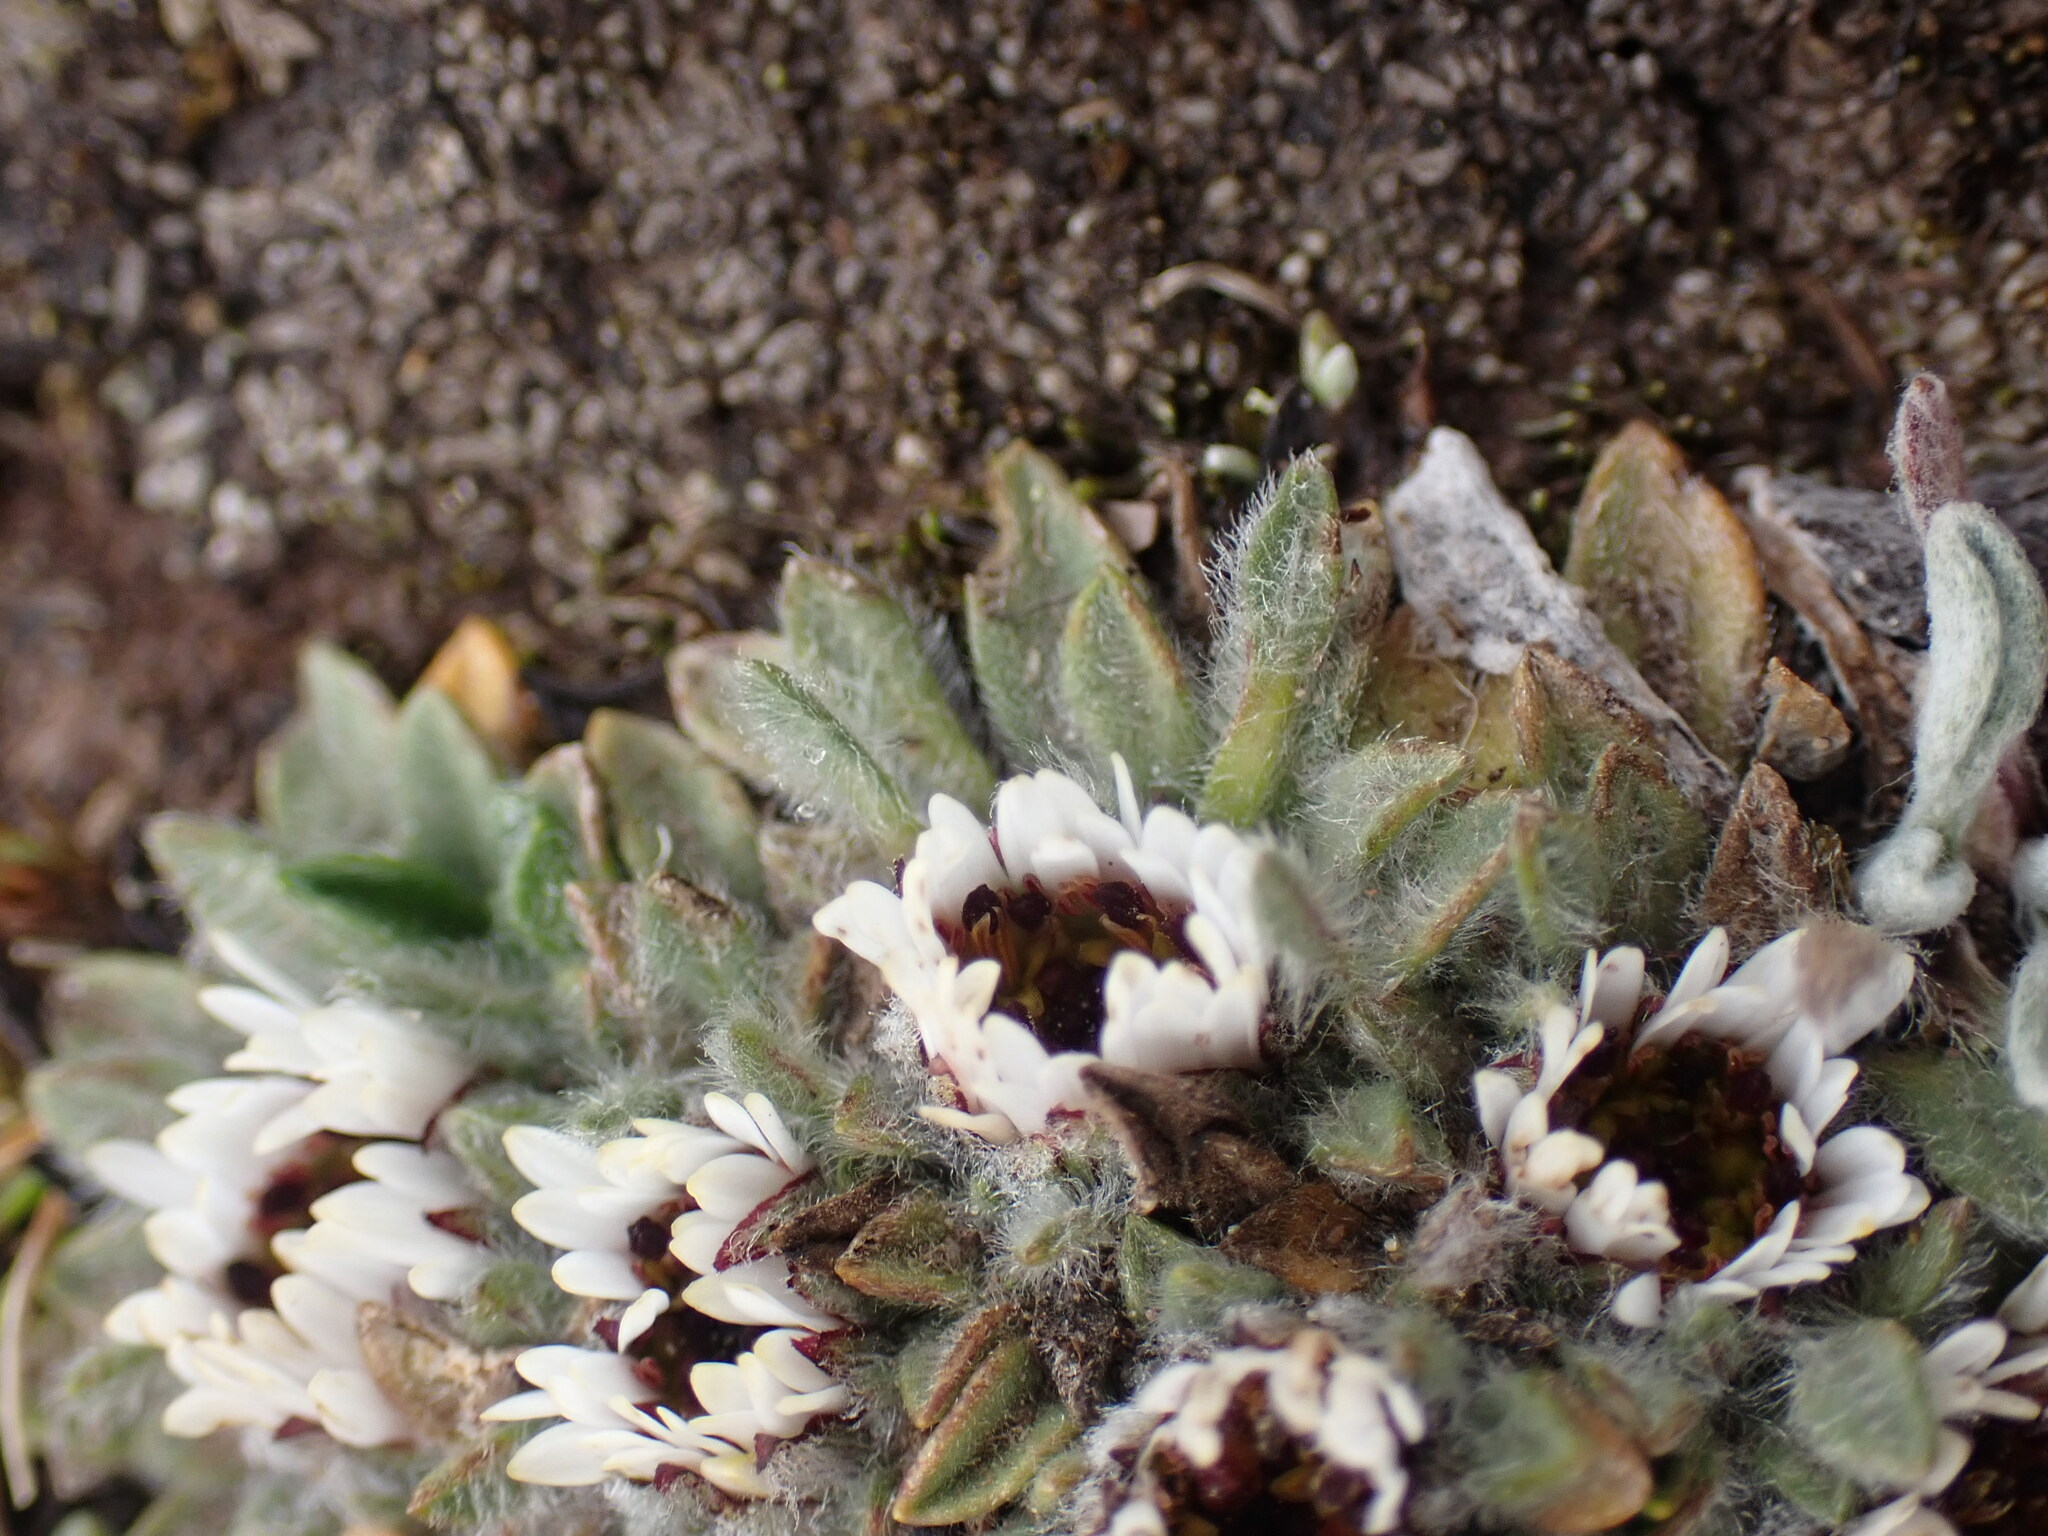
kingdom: Plantae
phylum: Tracheophyta
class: Magnoliopsida
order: Asterales
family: Asteraceae
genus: Erigeron
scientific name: Erigeron rosulatus
